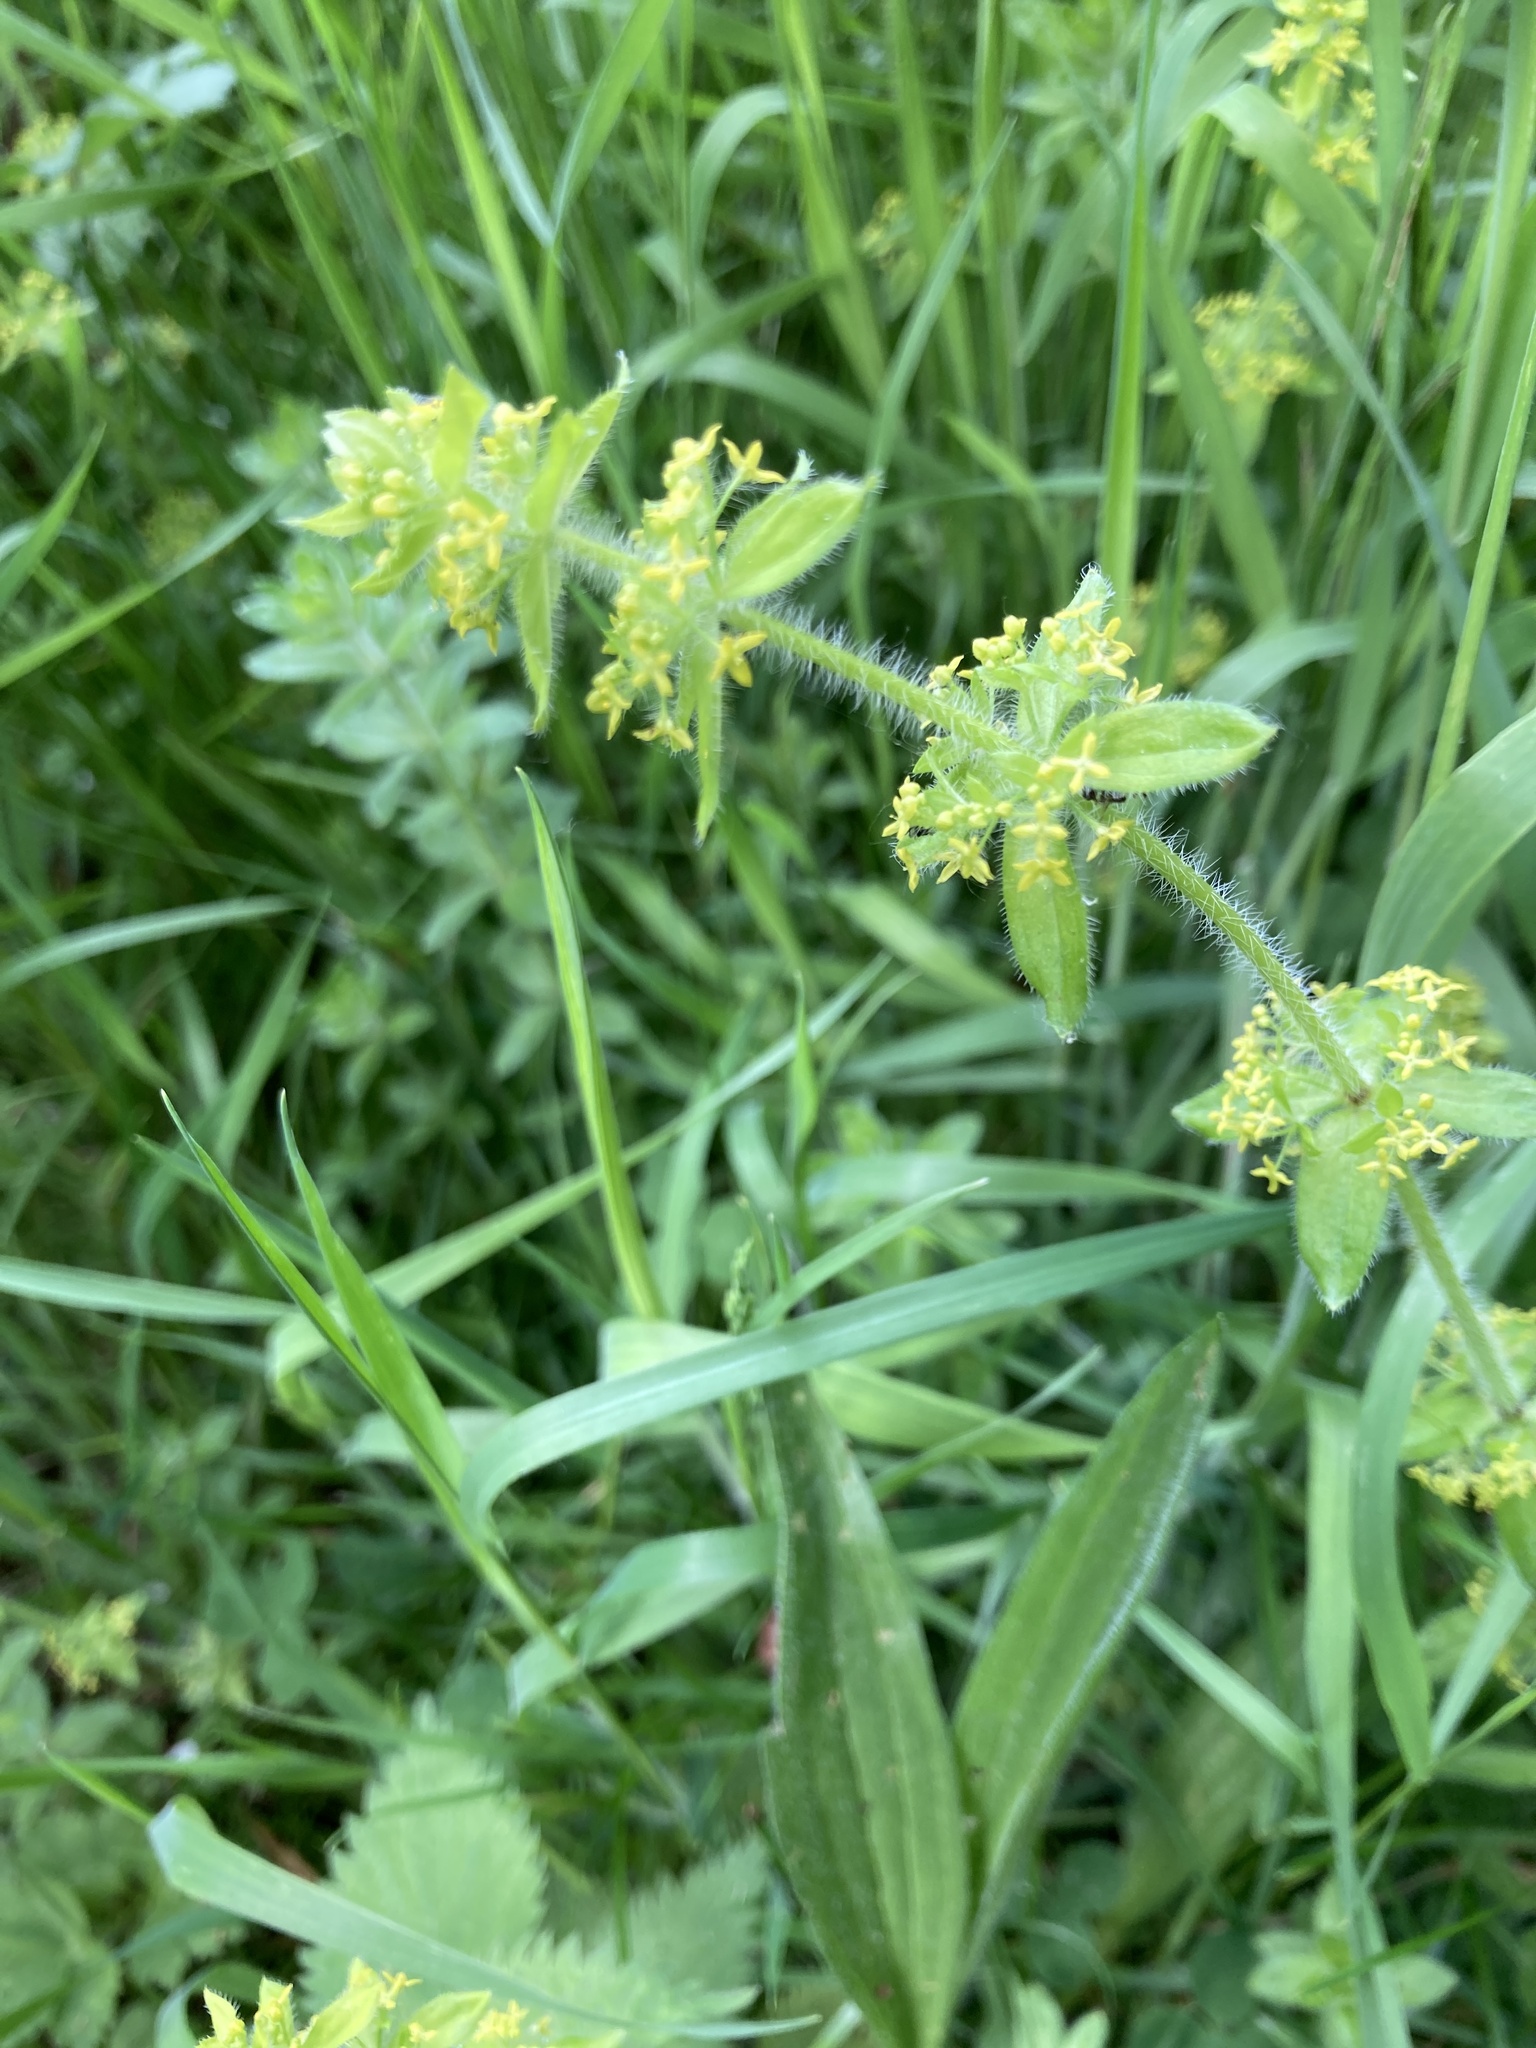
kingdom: Plantae
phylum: Tracheophyta
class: Magnoliopsida
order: Gentianales
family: Rubiaceae
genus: Cruciata
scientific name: Cruciata laevipes
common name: Crosswort
